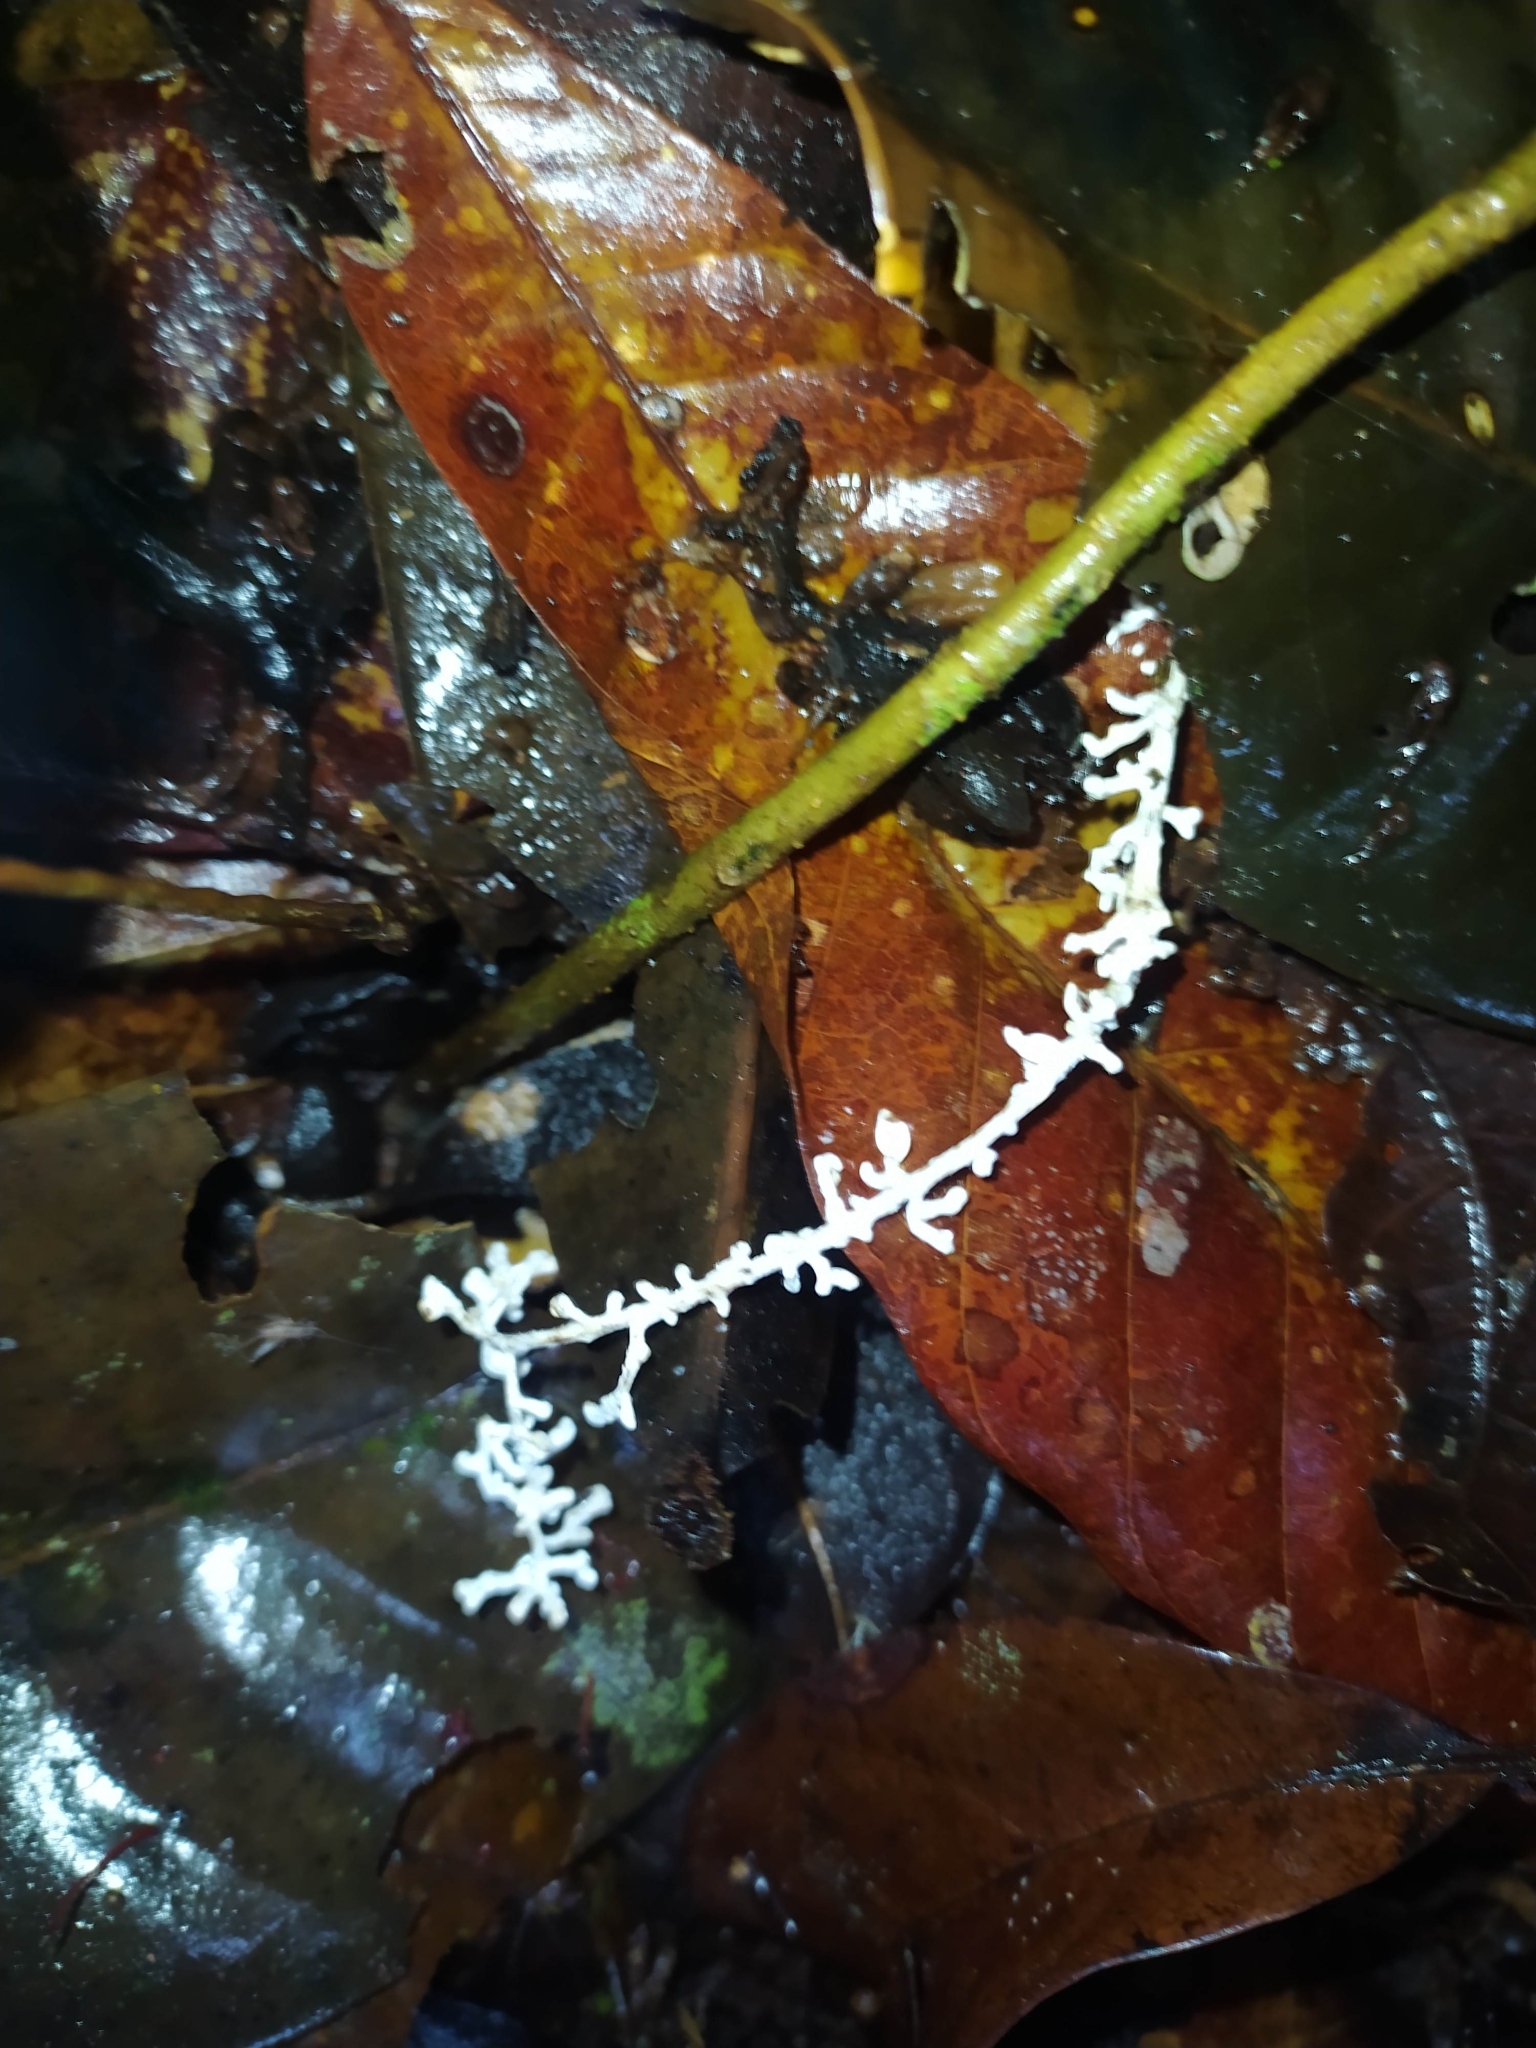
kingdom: Fungi
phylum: Basidiomycota
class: Agaricomycetes
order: Agaricales
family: Marasmiaceae
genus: Brunneocorticium
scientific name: Brunneocorticium corynecarpon
